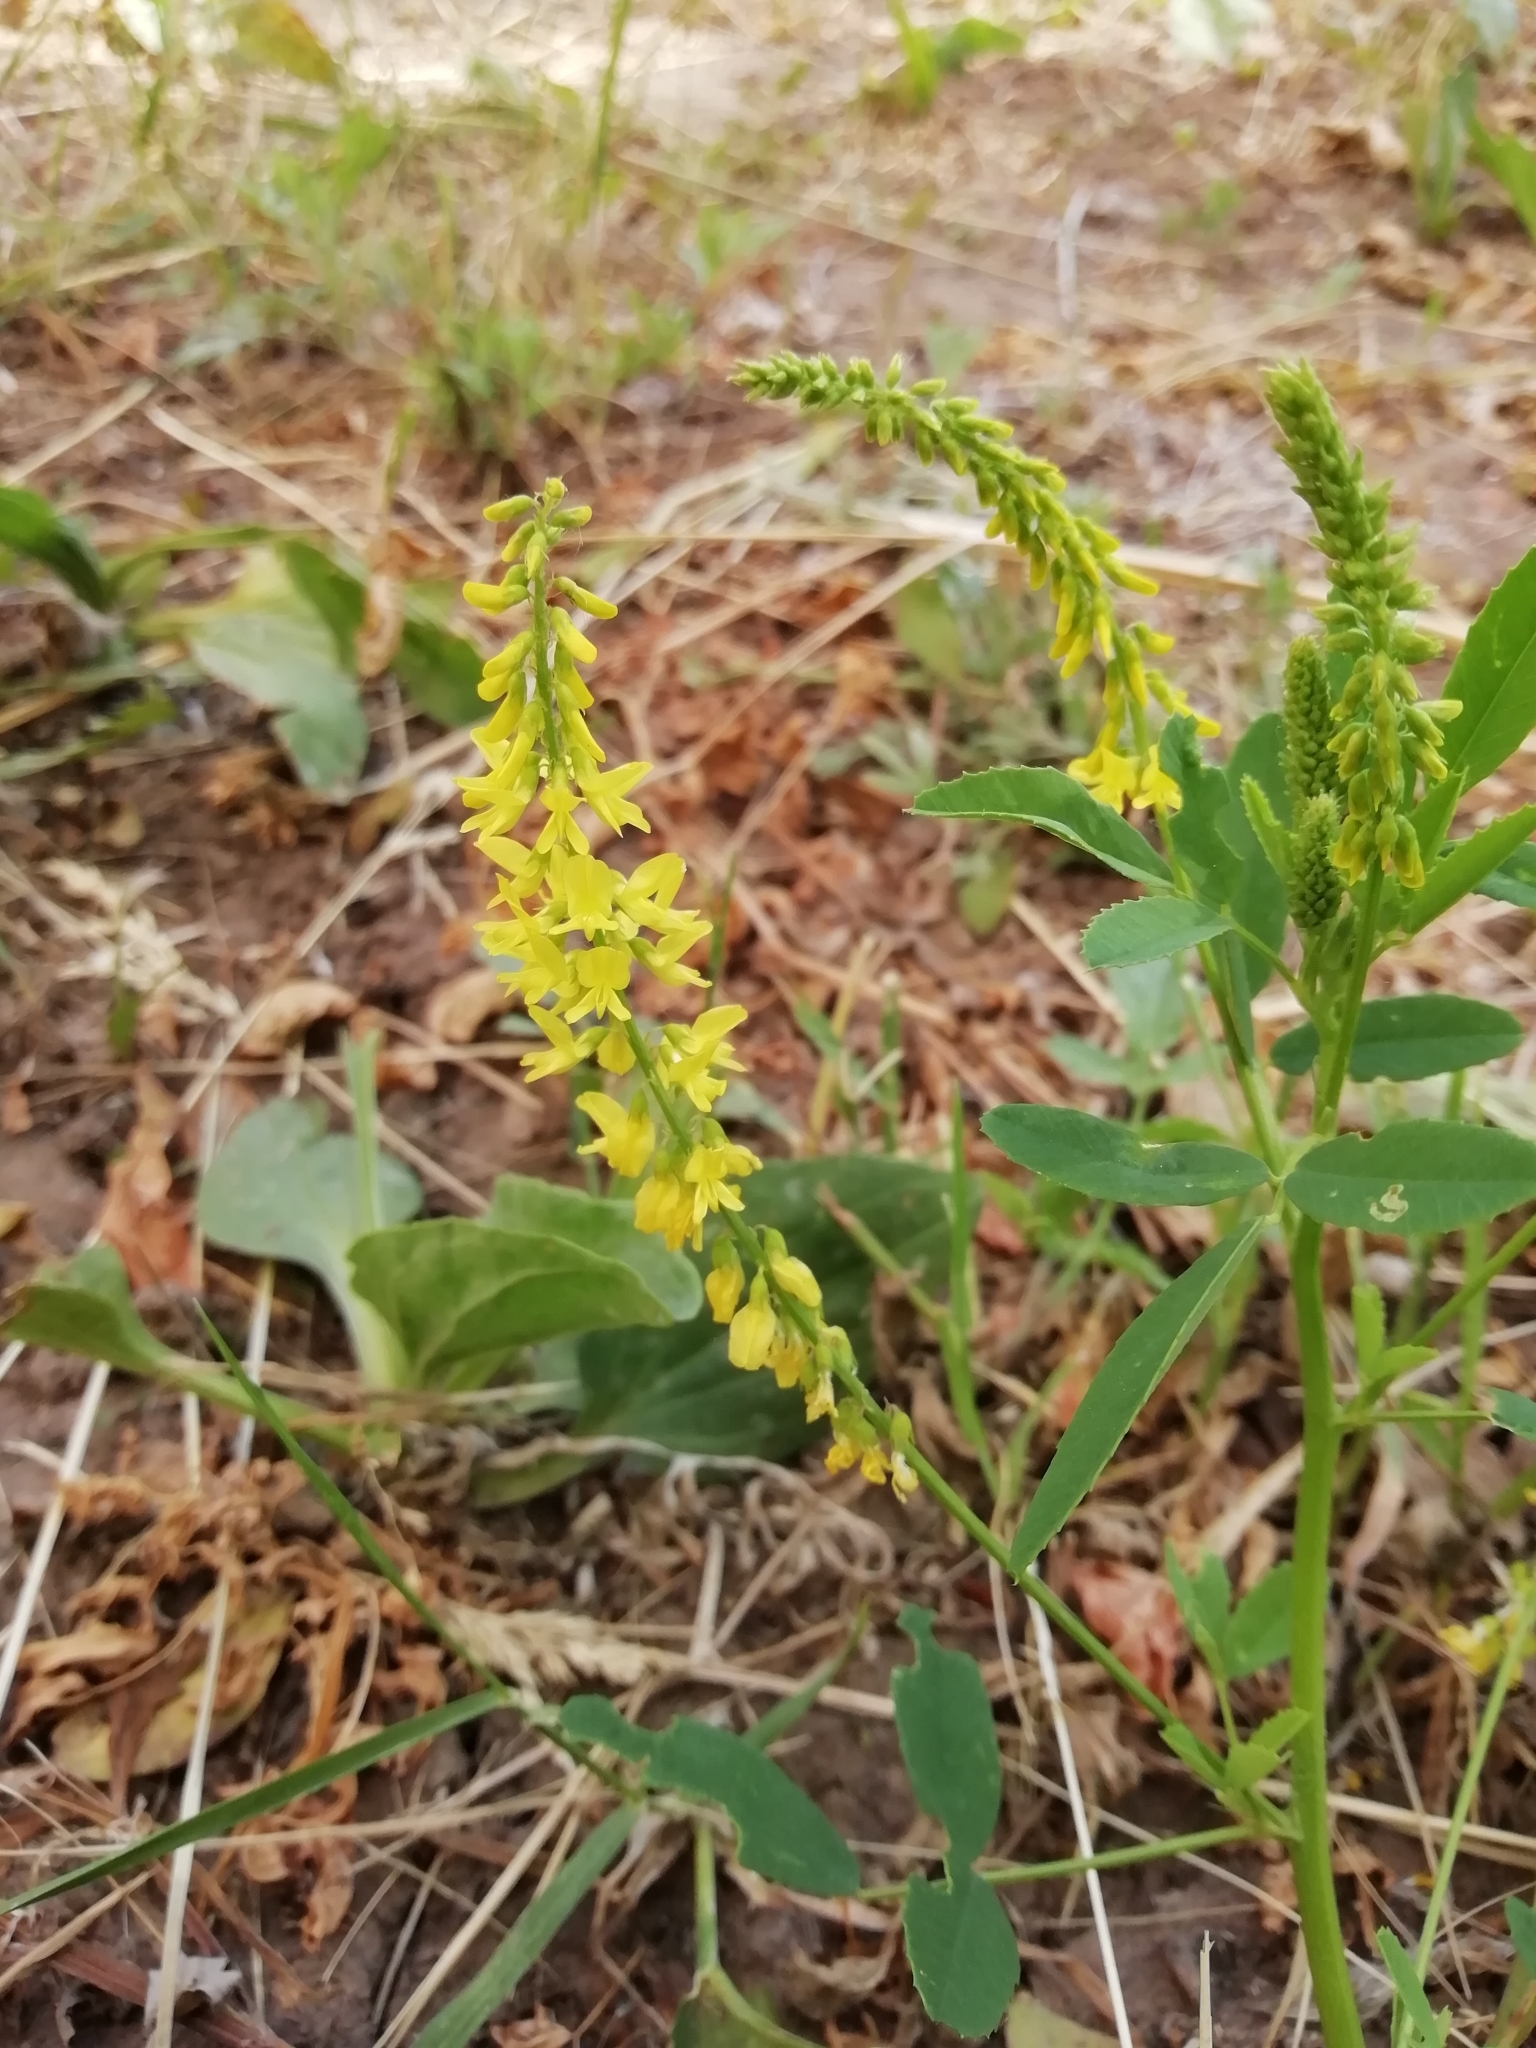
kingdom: Plantae
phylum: Tracheophyta
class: Magnoliopsida
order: Fabales
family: Fabaceae
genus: Melilotus
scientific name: Melilotus officinalis
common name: Sweetclover
